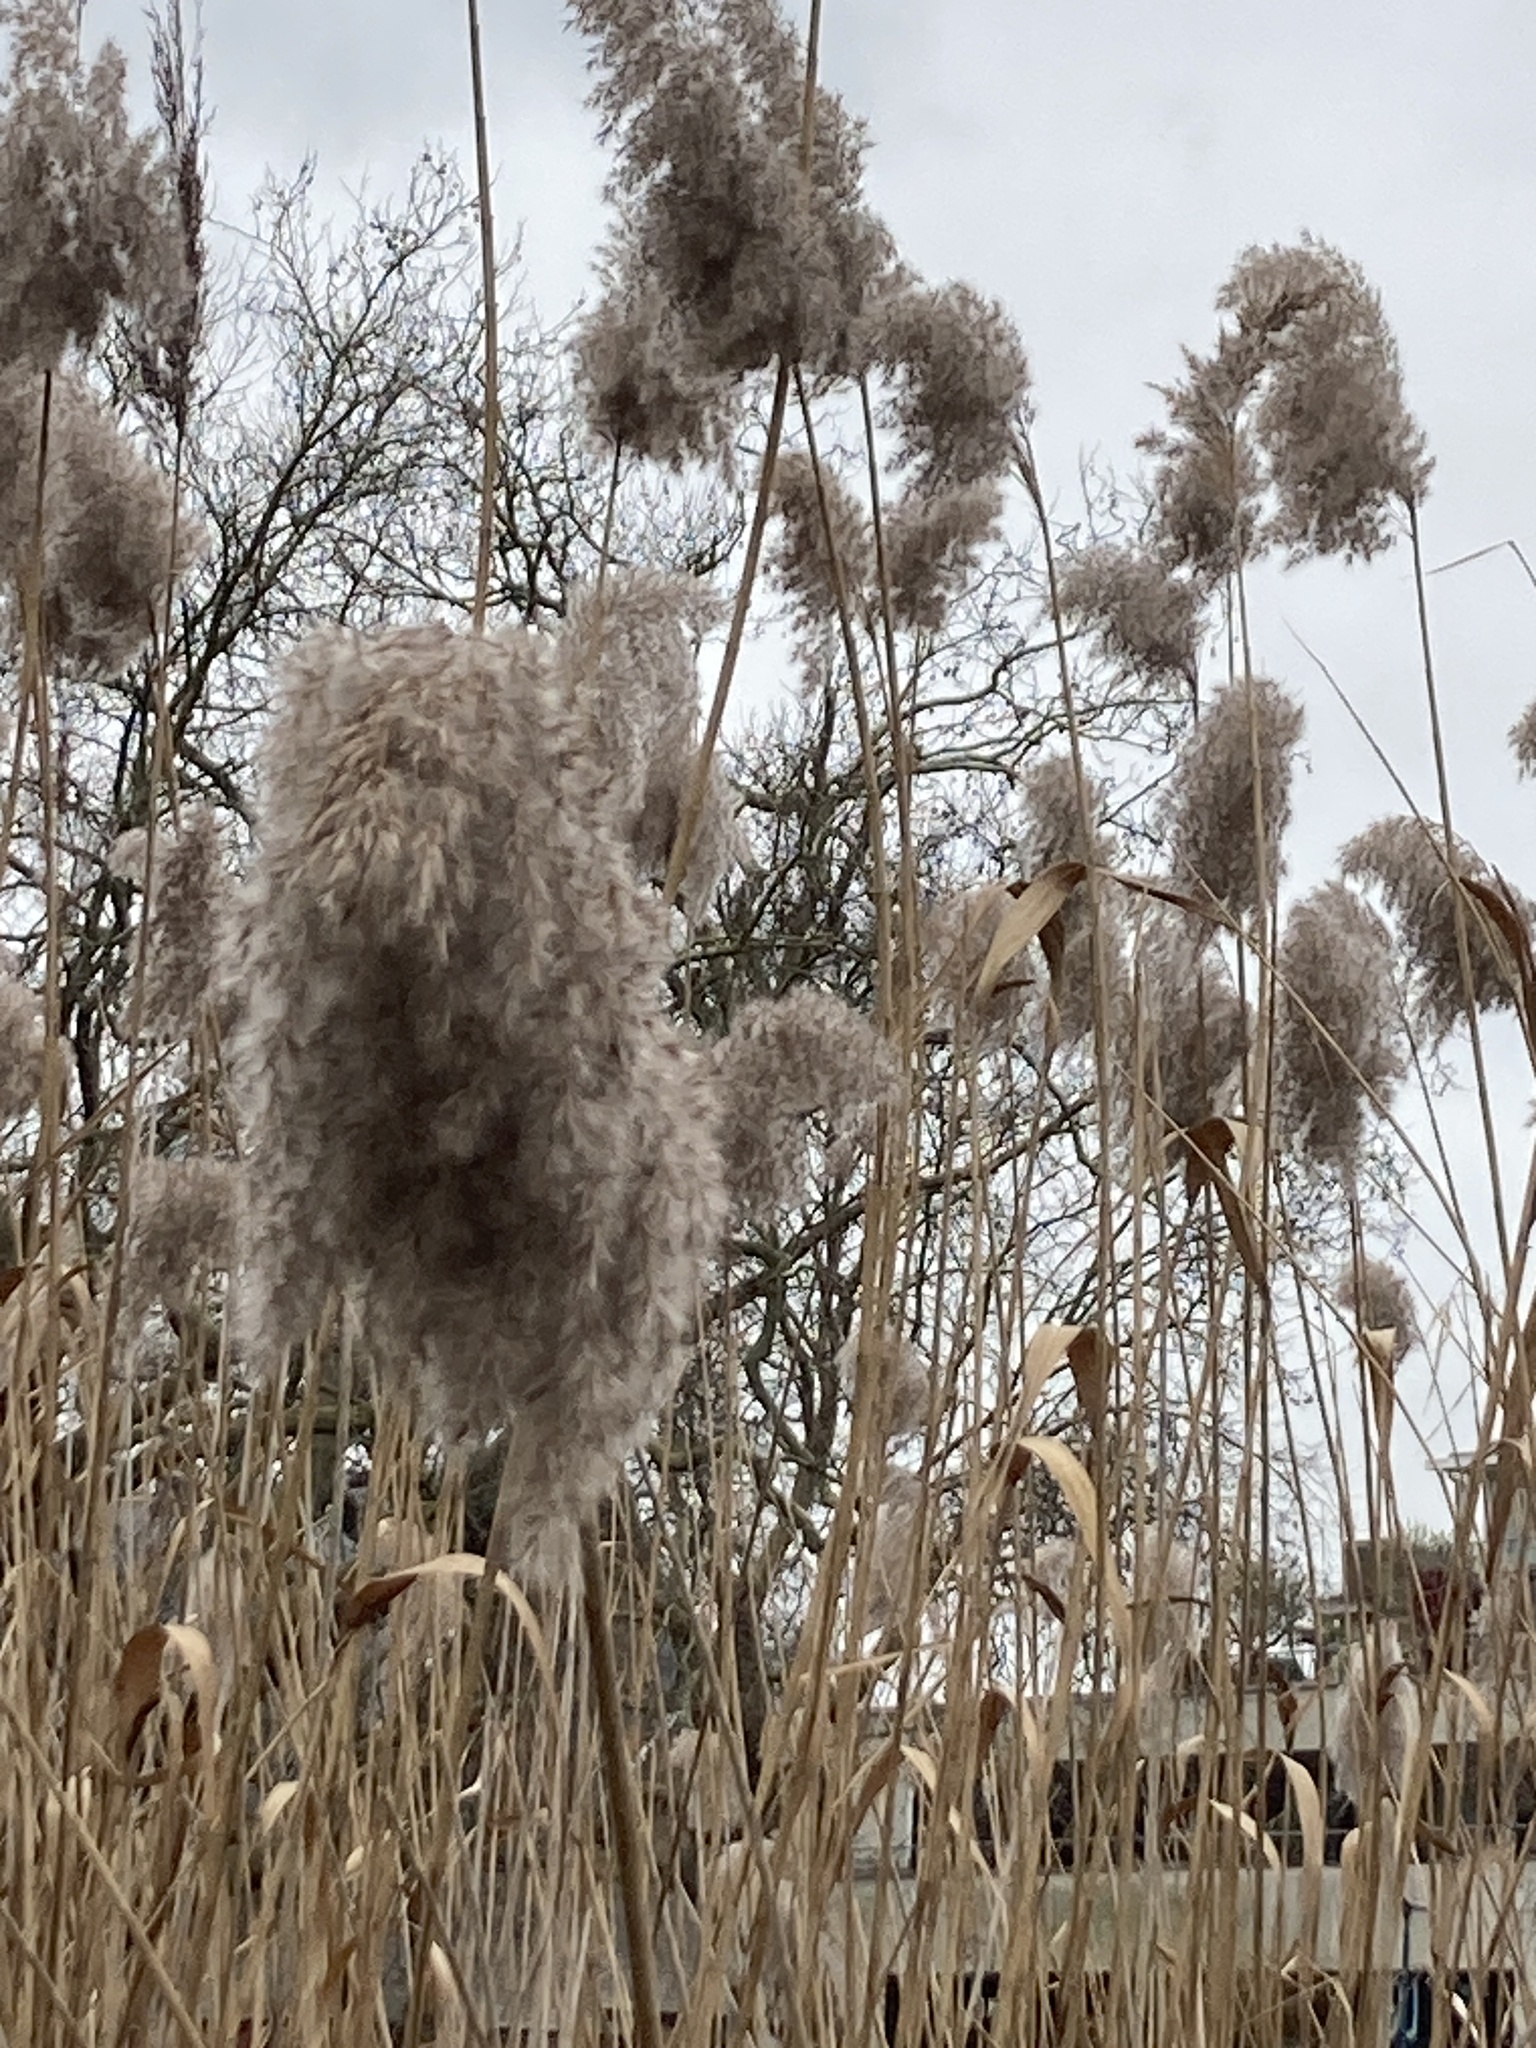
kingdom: Plantae
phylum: Tracheophyta
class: Liliopsida
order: Poales
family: Poaceae
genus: Phragmites
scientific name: Phragmites australis
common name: Common reed
